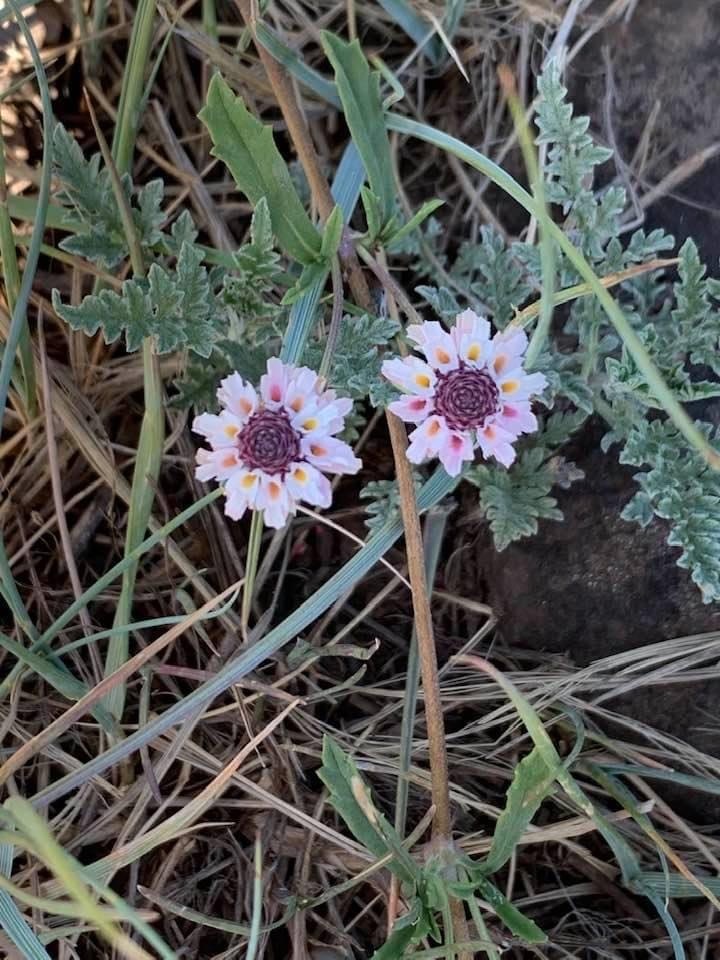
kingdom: Plantae
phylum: Tracheophyta
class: Magnoliopsida
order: Lamiales
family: Verbenaceae
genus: Phyla
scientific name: Phyla cuneifolia
